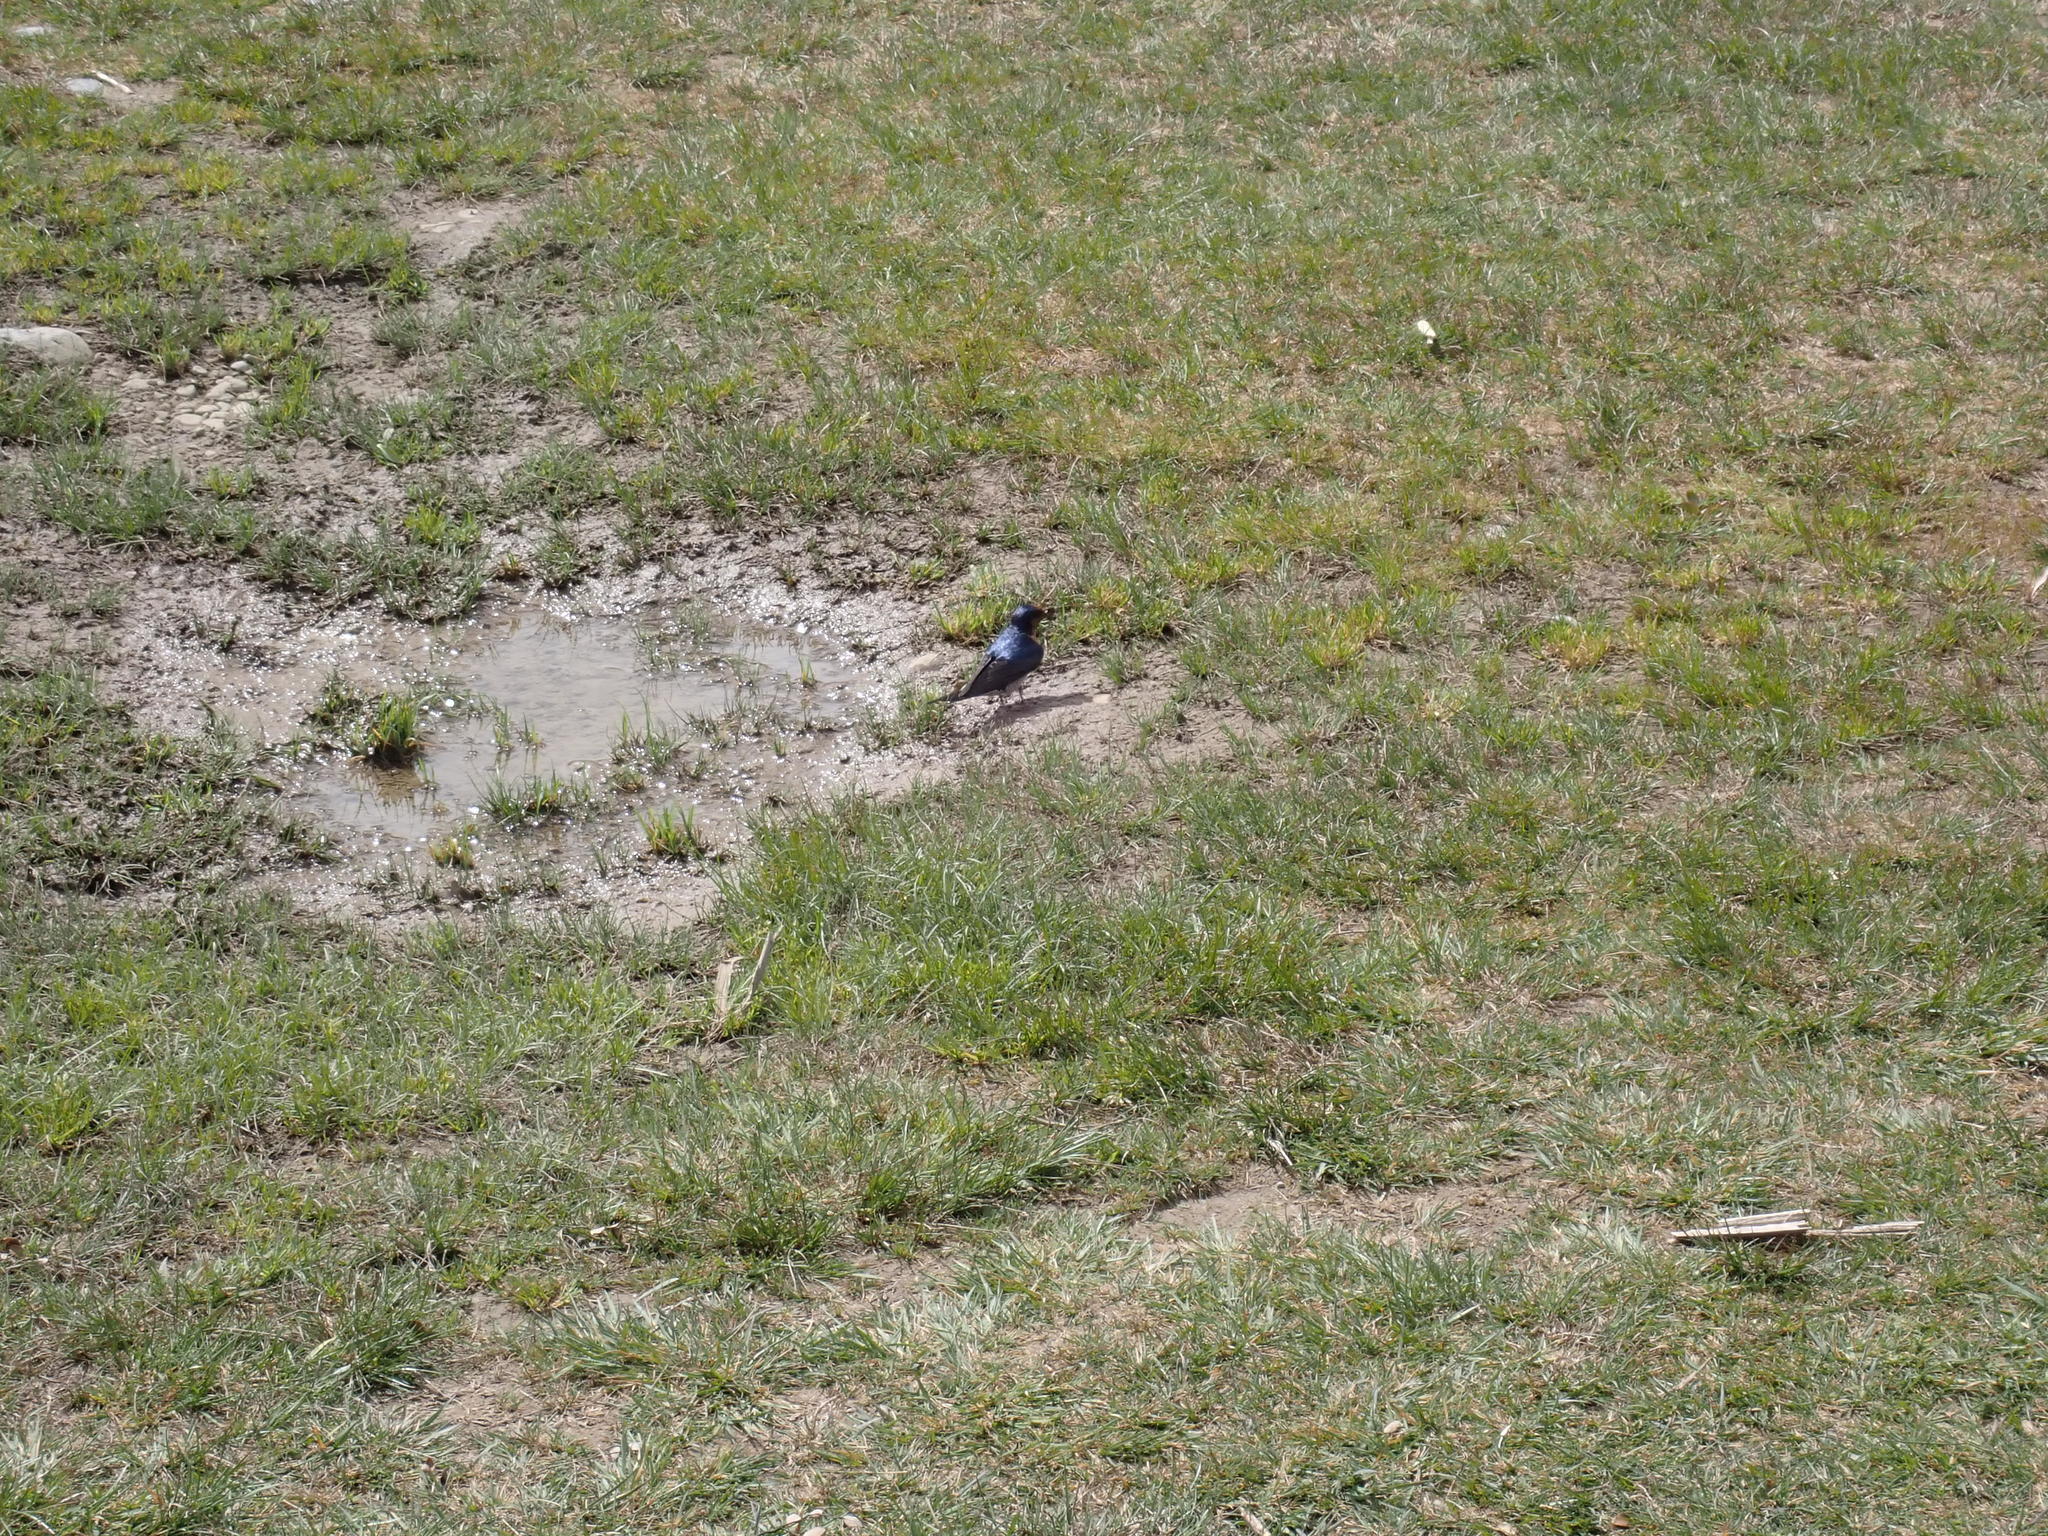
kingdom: Animalia
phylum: Chordata
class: Aves
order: Passeriformes
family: Hirundinidae
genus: Hirundo
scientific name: Hirundo neoxena
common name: Welcome swallow
